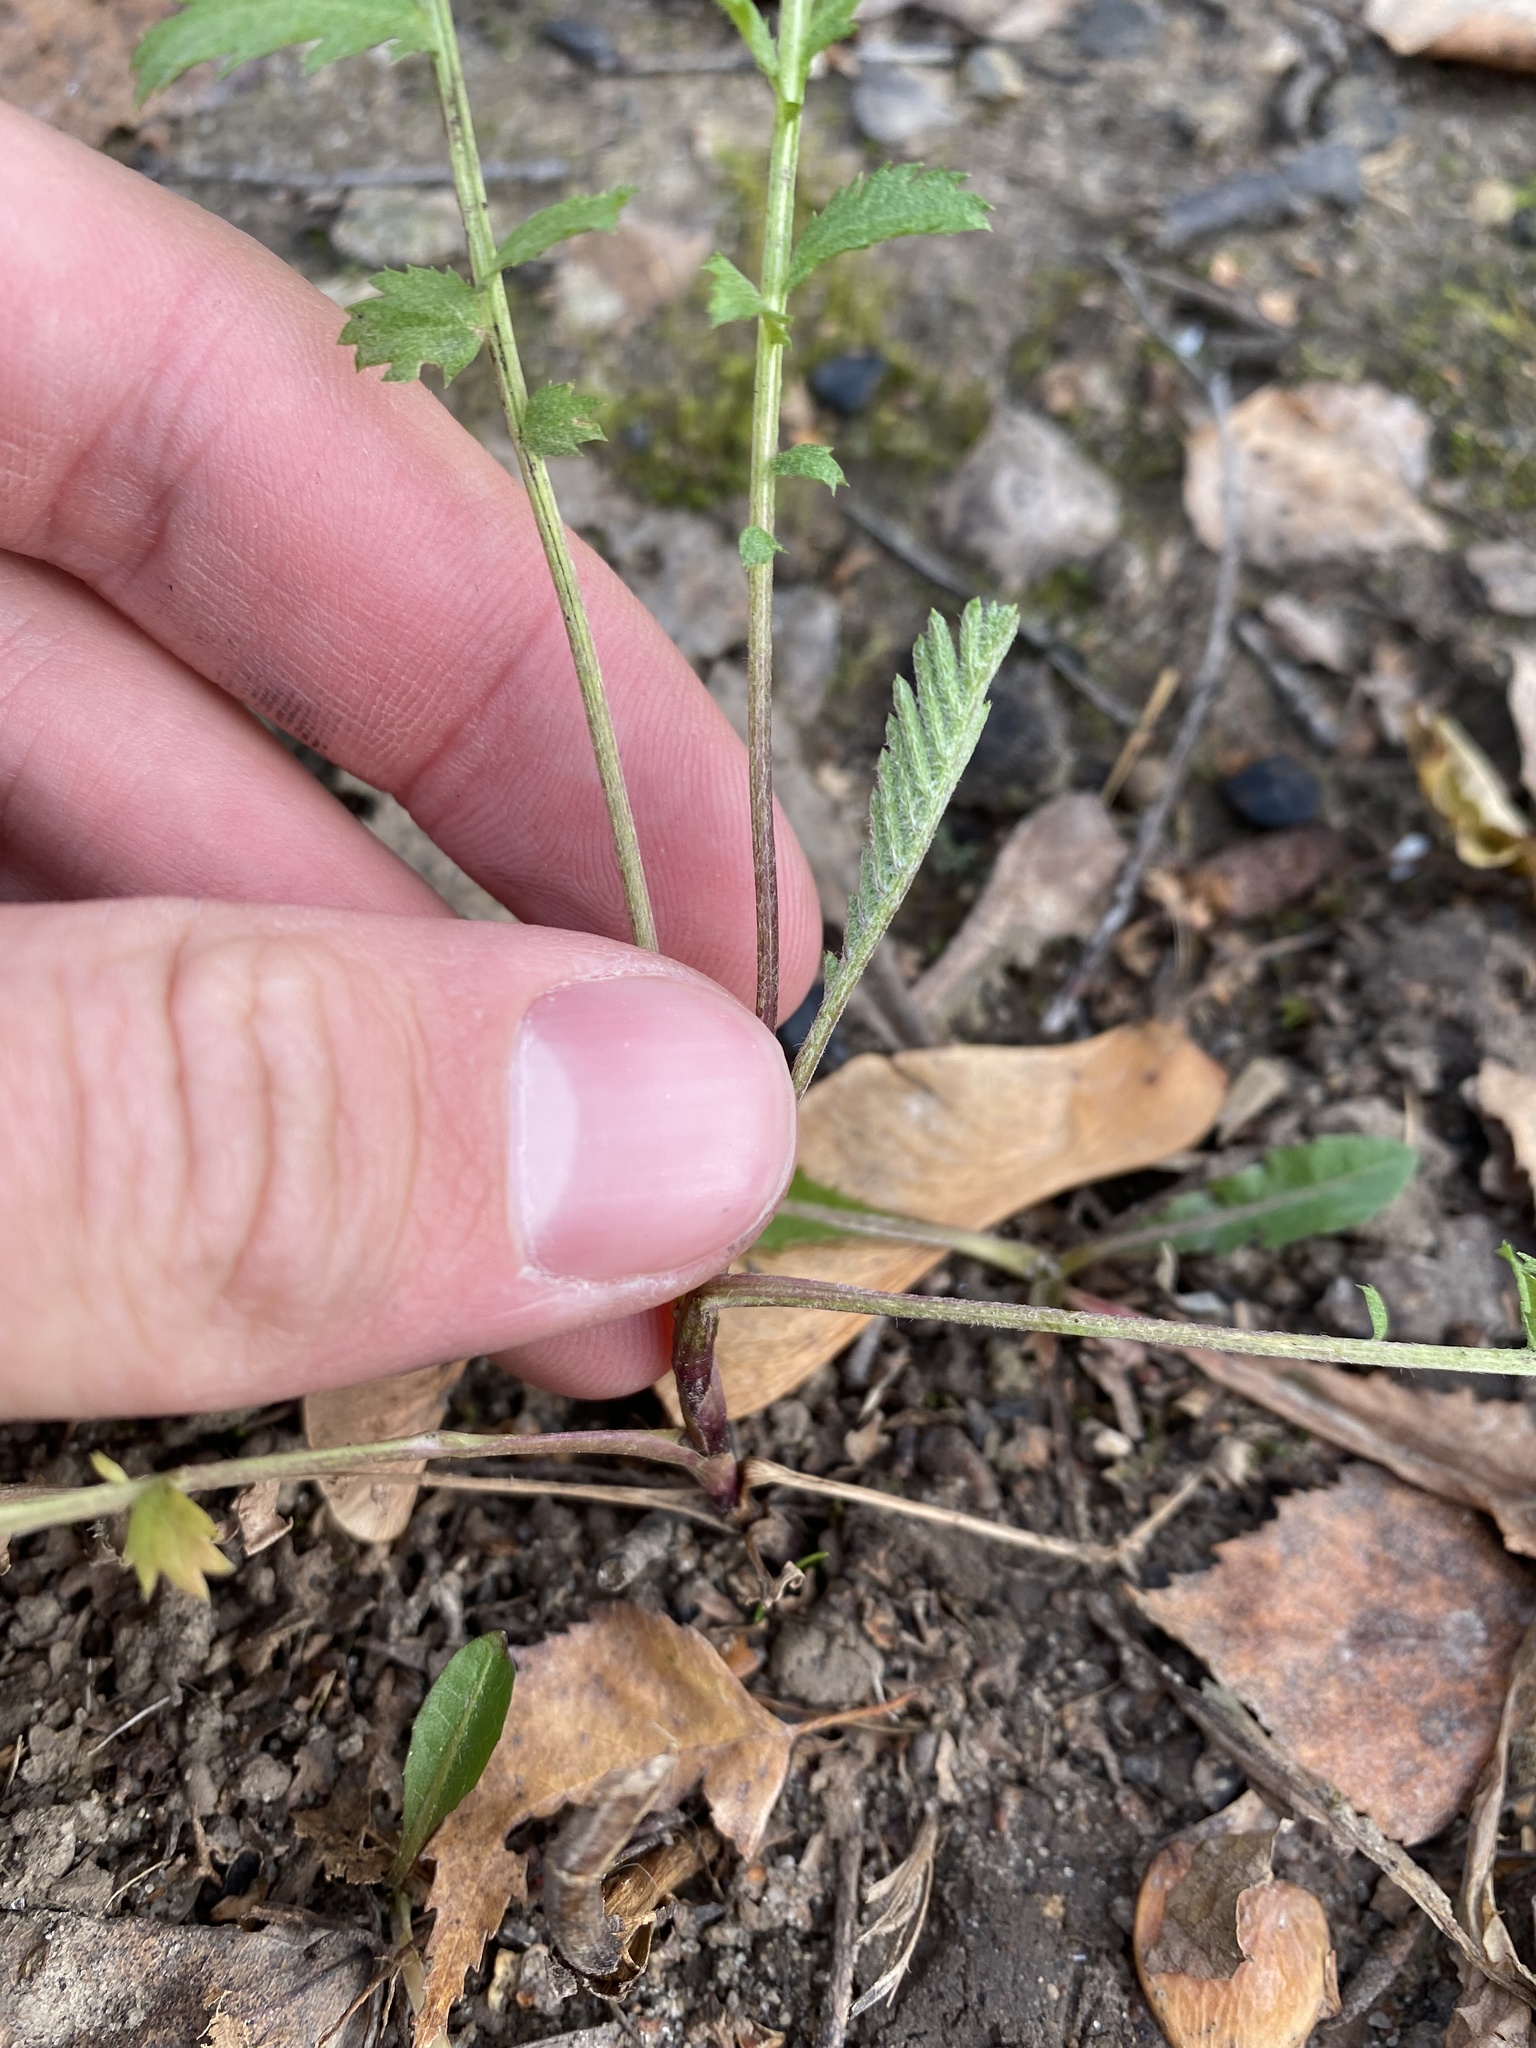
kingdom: Plantae
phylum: Tracheophyta
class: Magnoliopsida
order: Asterales
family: Asteraceae
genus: Tanacetum
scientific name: Tanacetum vulgare
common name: Common tansy
